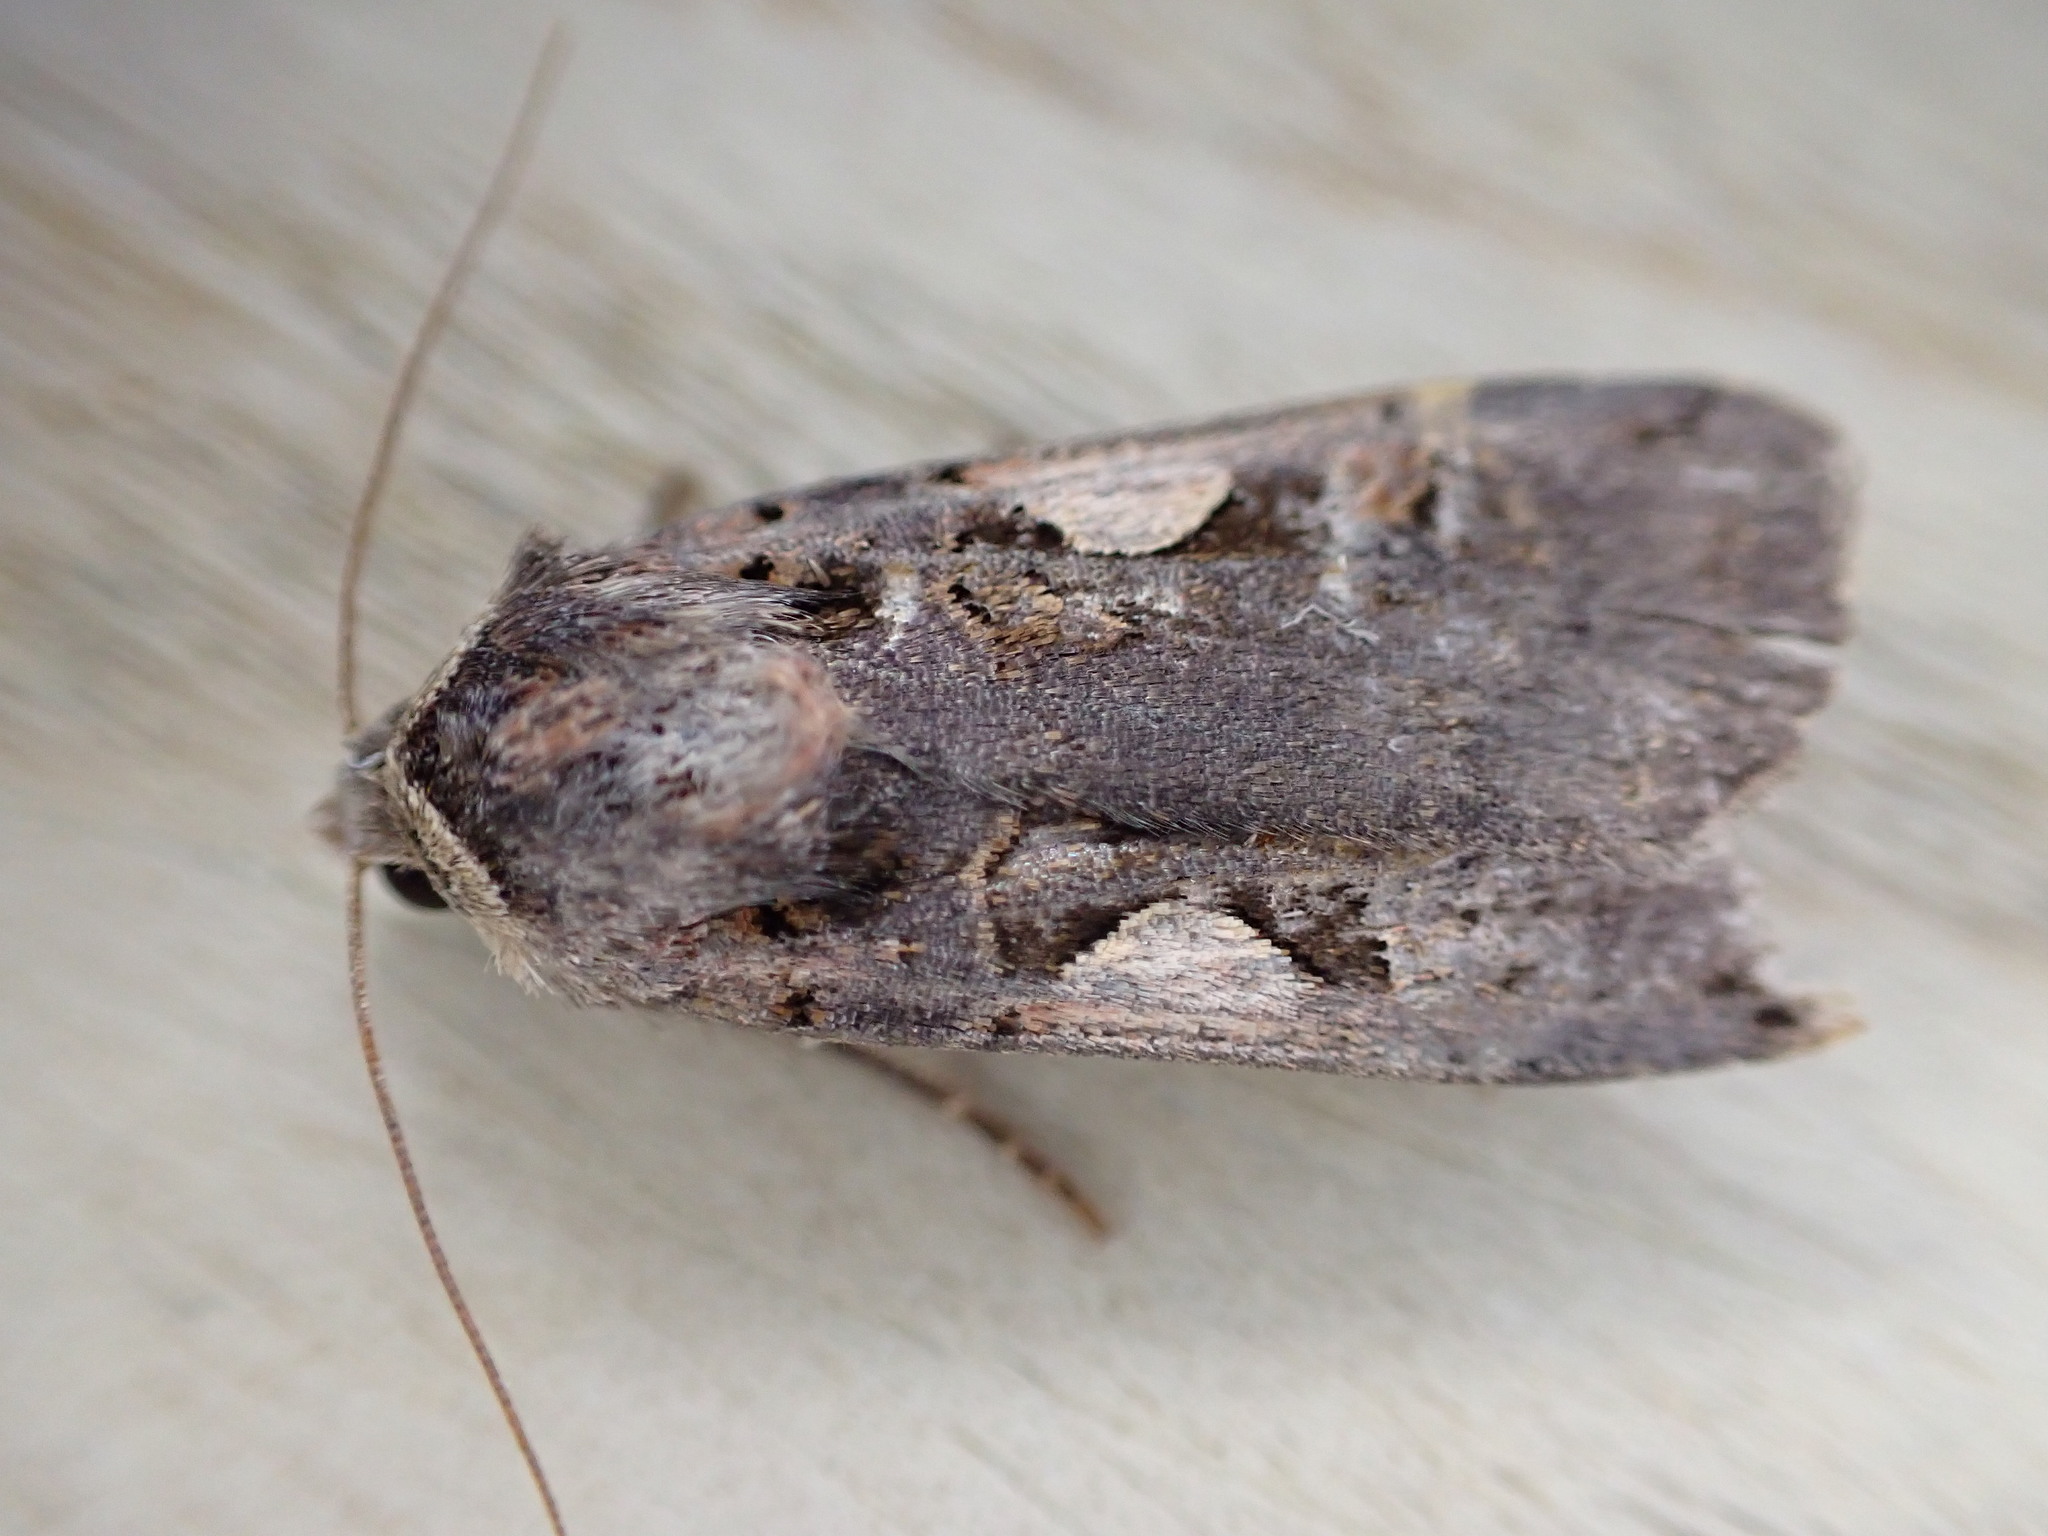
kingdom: Animalia
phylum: Arthropoda
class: Insecta
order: Lepidoptera
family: Noctuidae
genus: Xestia
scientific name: Xestia c-nigrum
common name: Setaceous hebrew character
